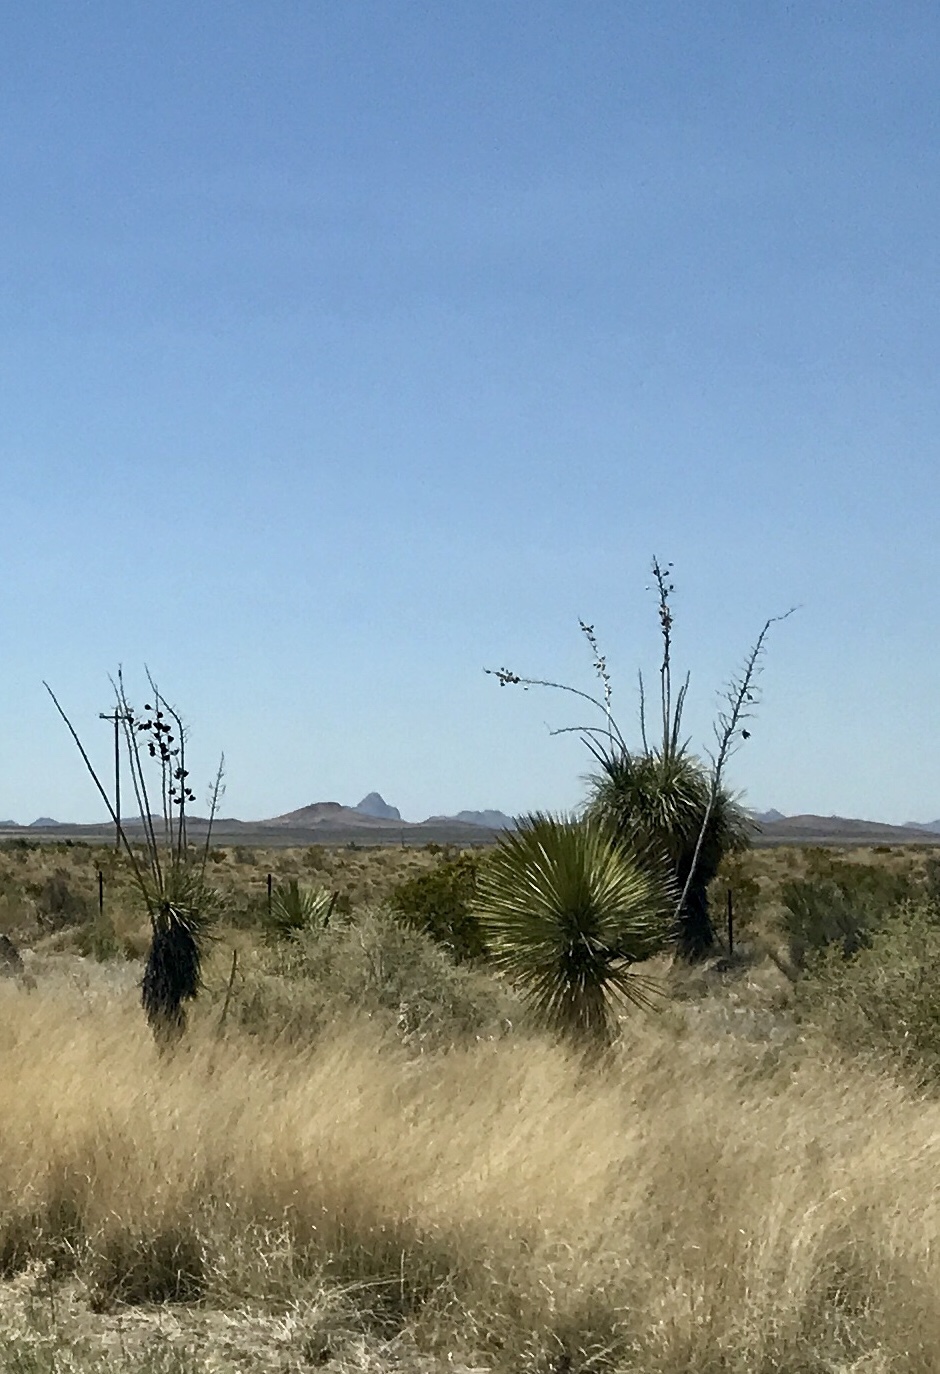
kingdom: Plantae
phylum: Tracheophyta
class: Liliopsida
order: Asparagales
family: Asparagaceae
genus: Yucca
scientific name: Yucca elata
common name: Palmella
